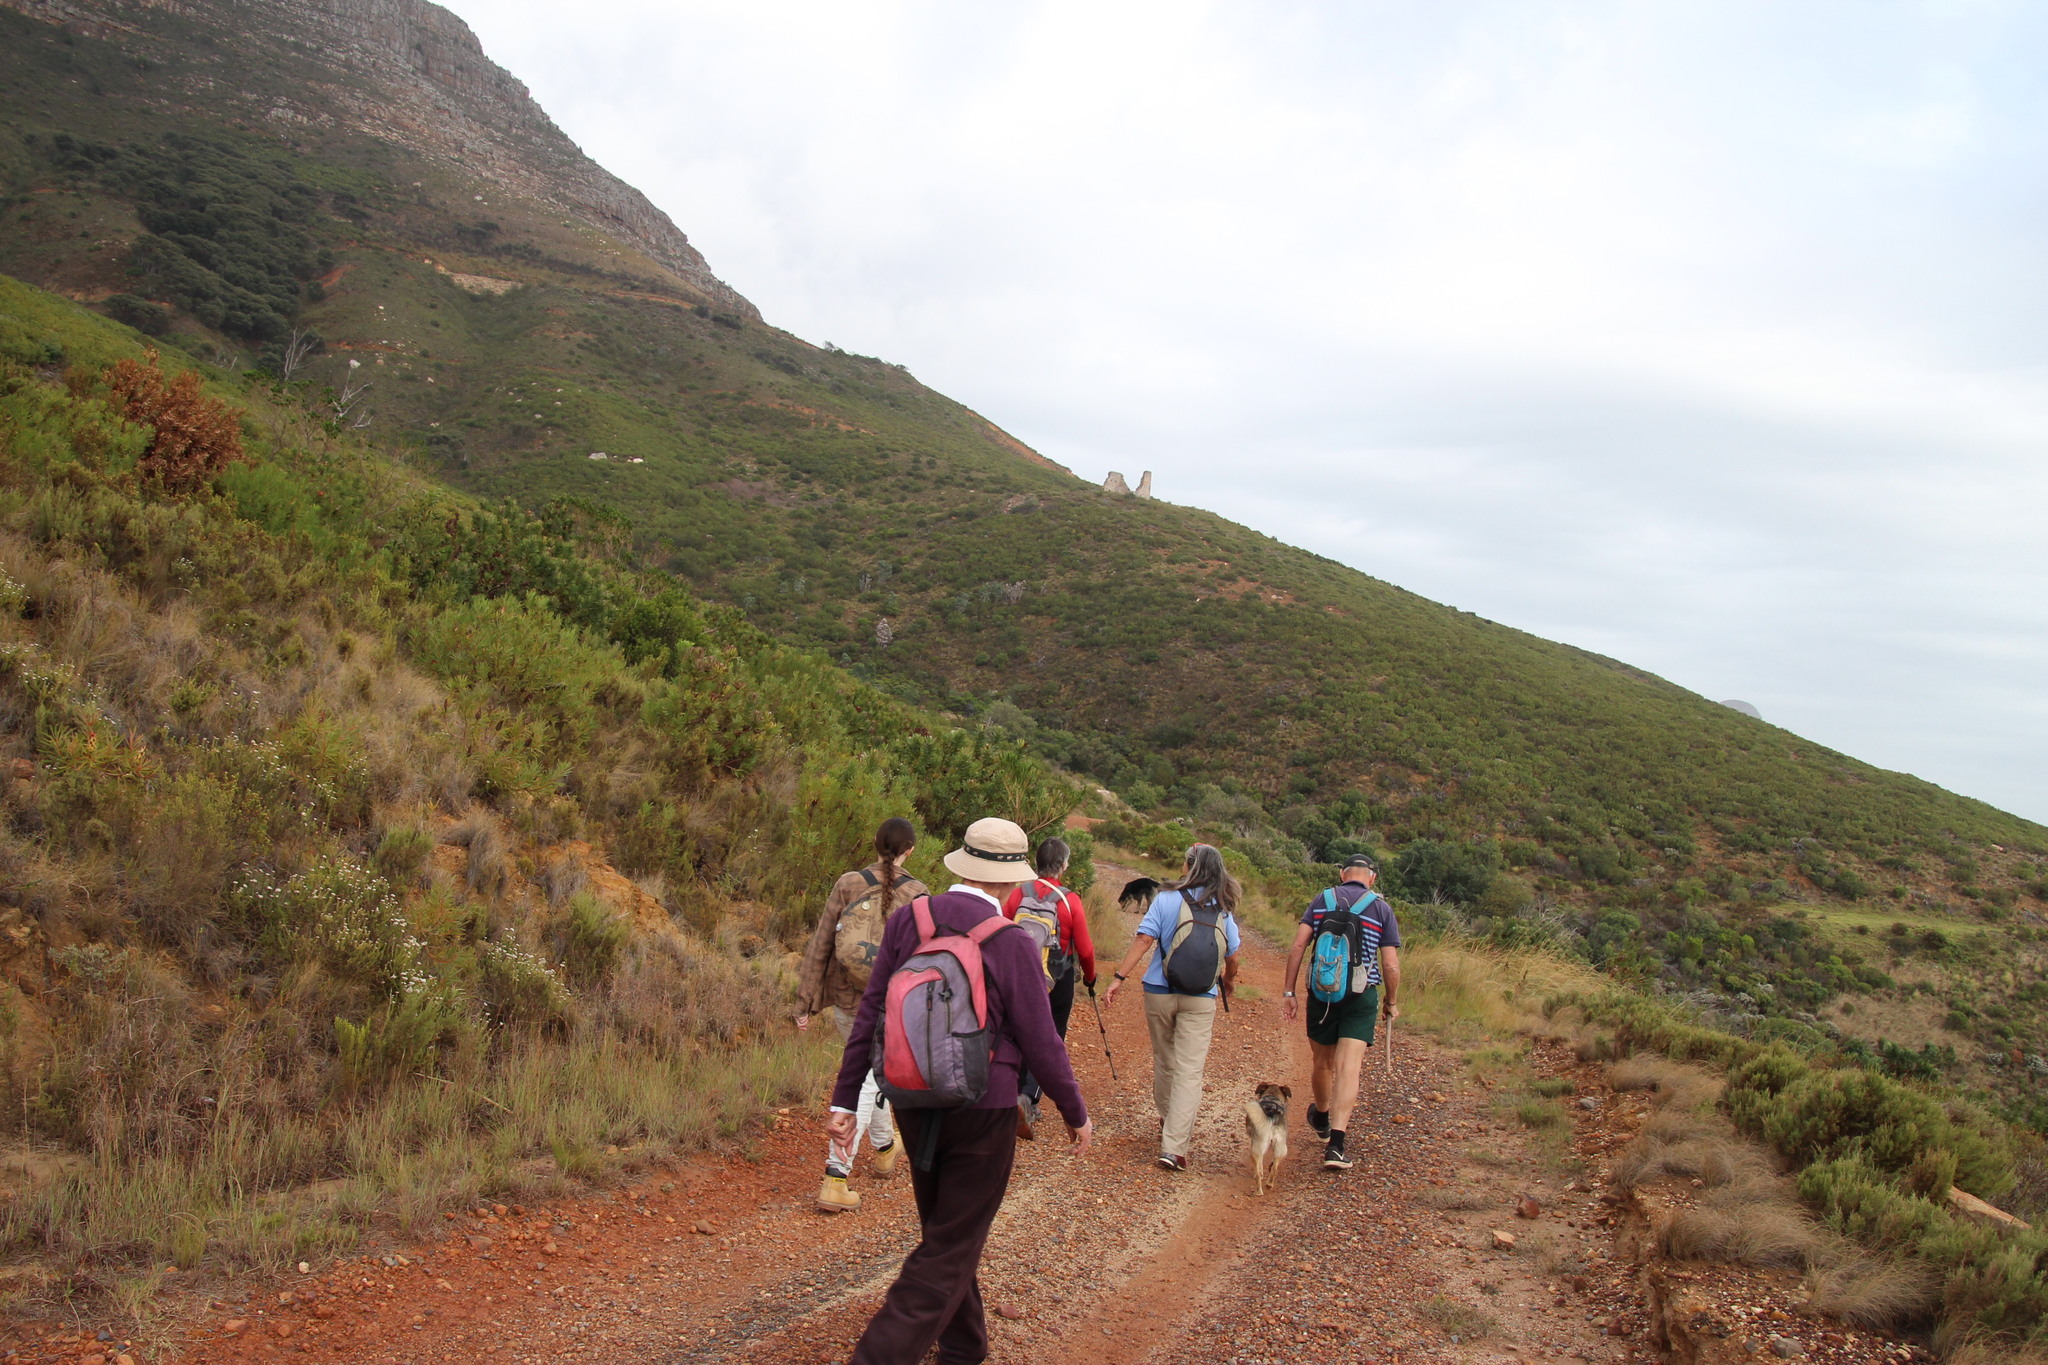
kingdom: Plantae
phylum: Tracheophyta
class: Magnoliopsida
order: Proteales
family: Proteaceae
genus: Protea
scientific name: Protea
